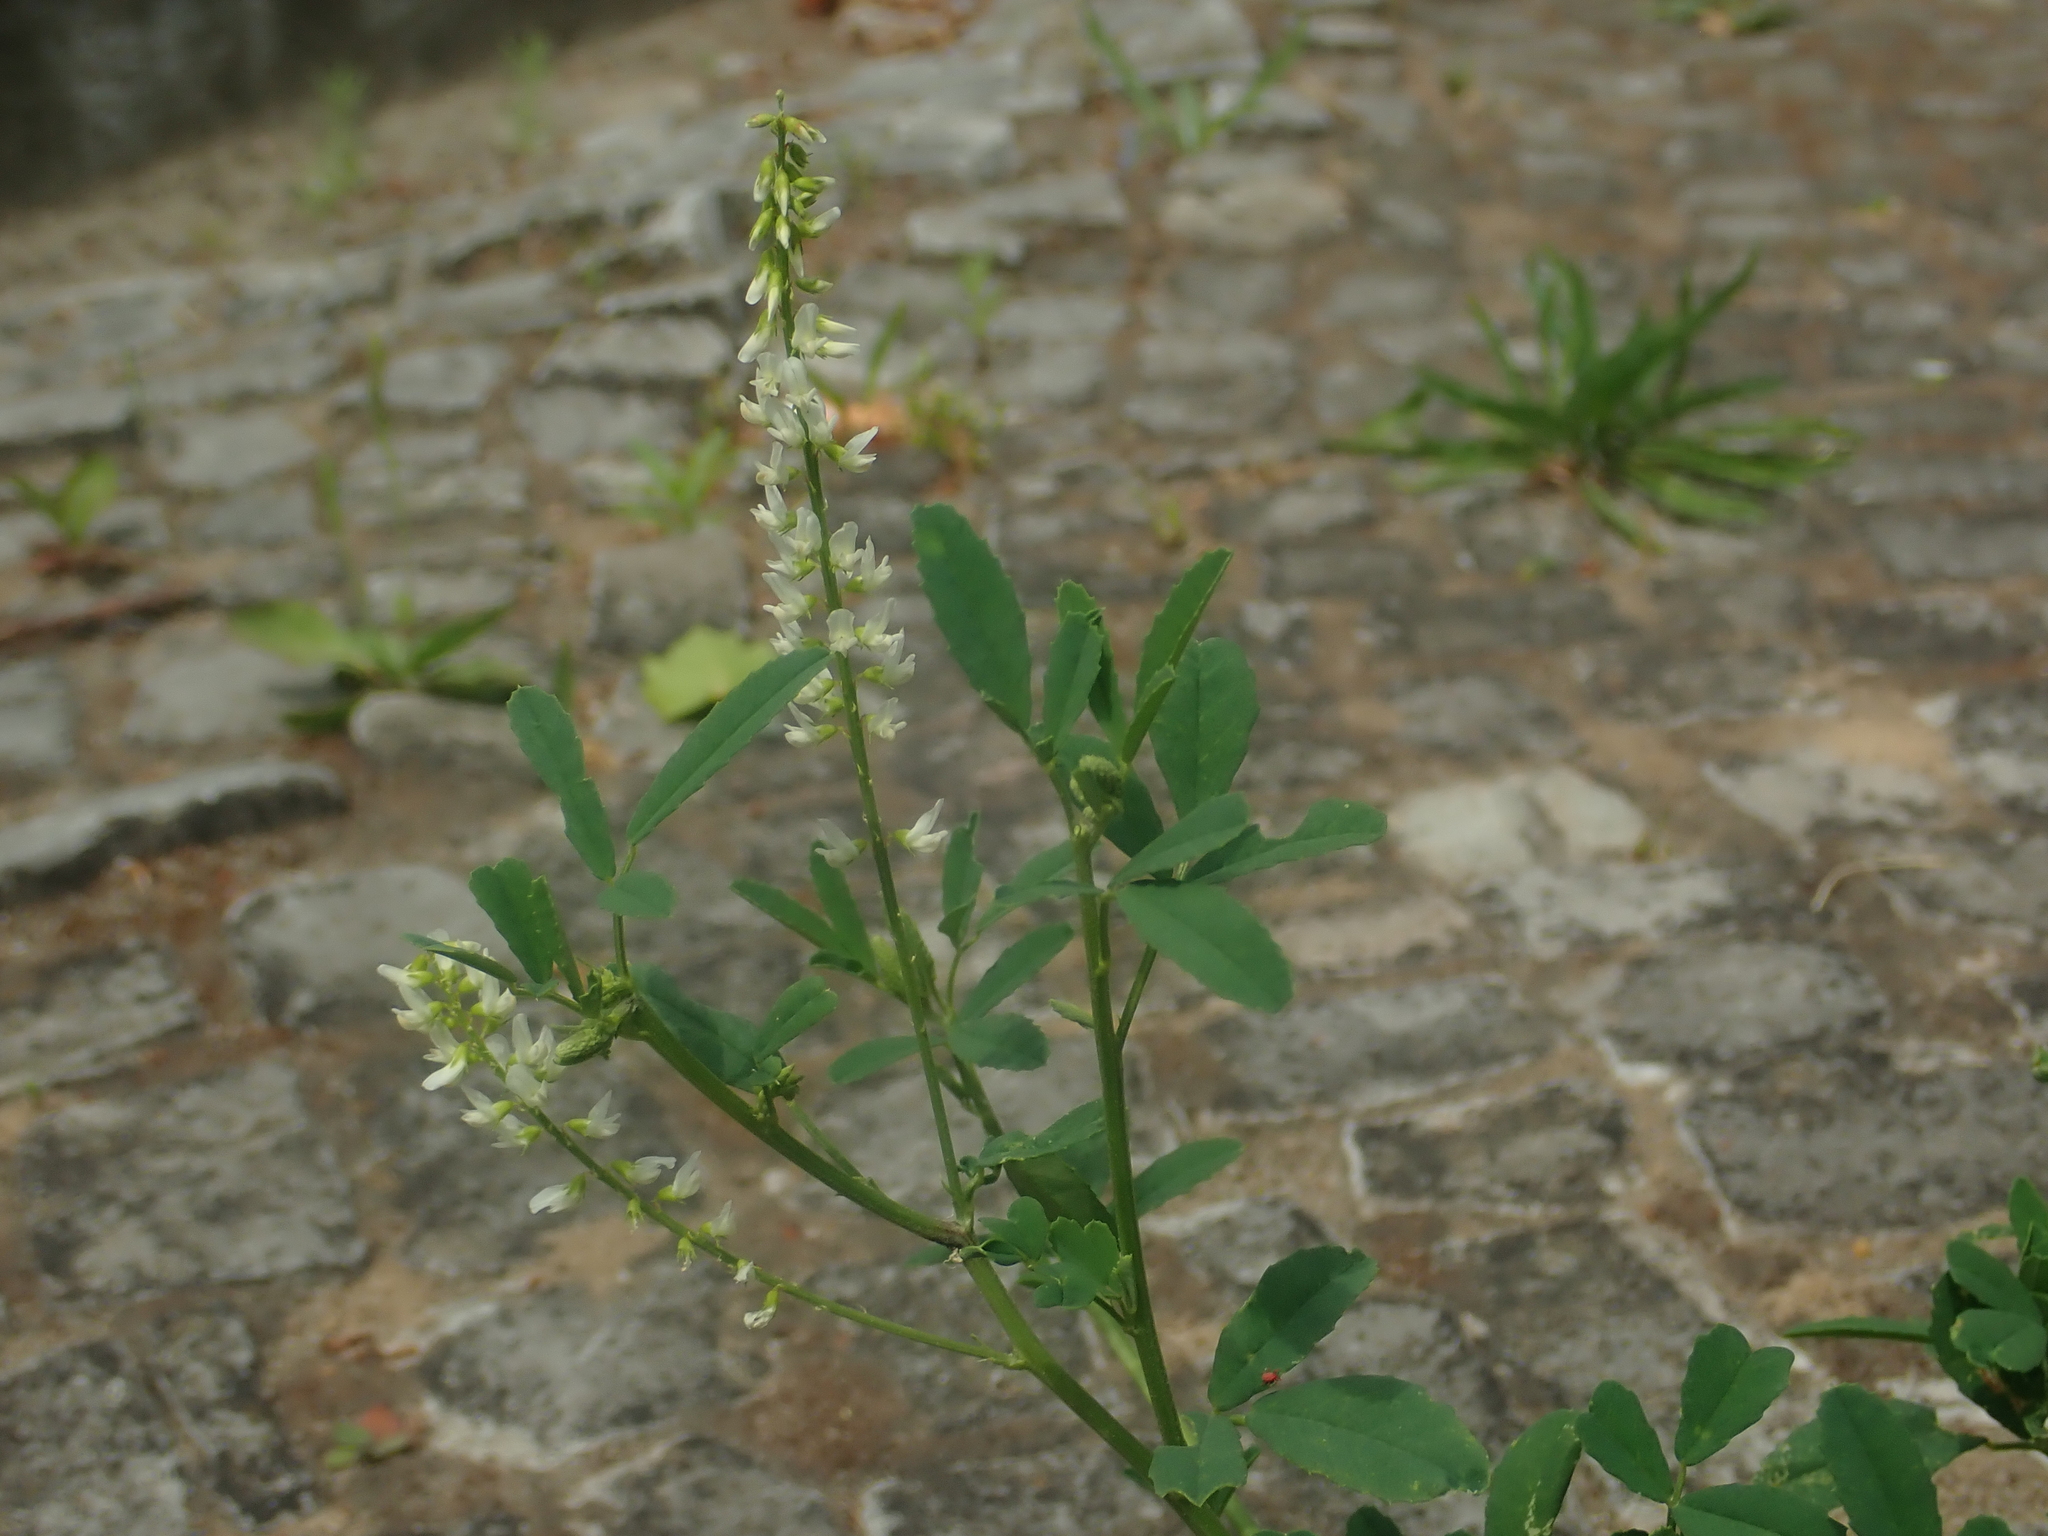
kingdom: Plantae
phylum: Tracheophyta
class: Magnoliopsida
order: Fabales
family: Fabaceae
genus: Melilotus
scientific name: Melilotus albus
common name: White melilot
